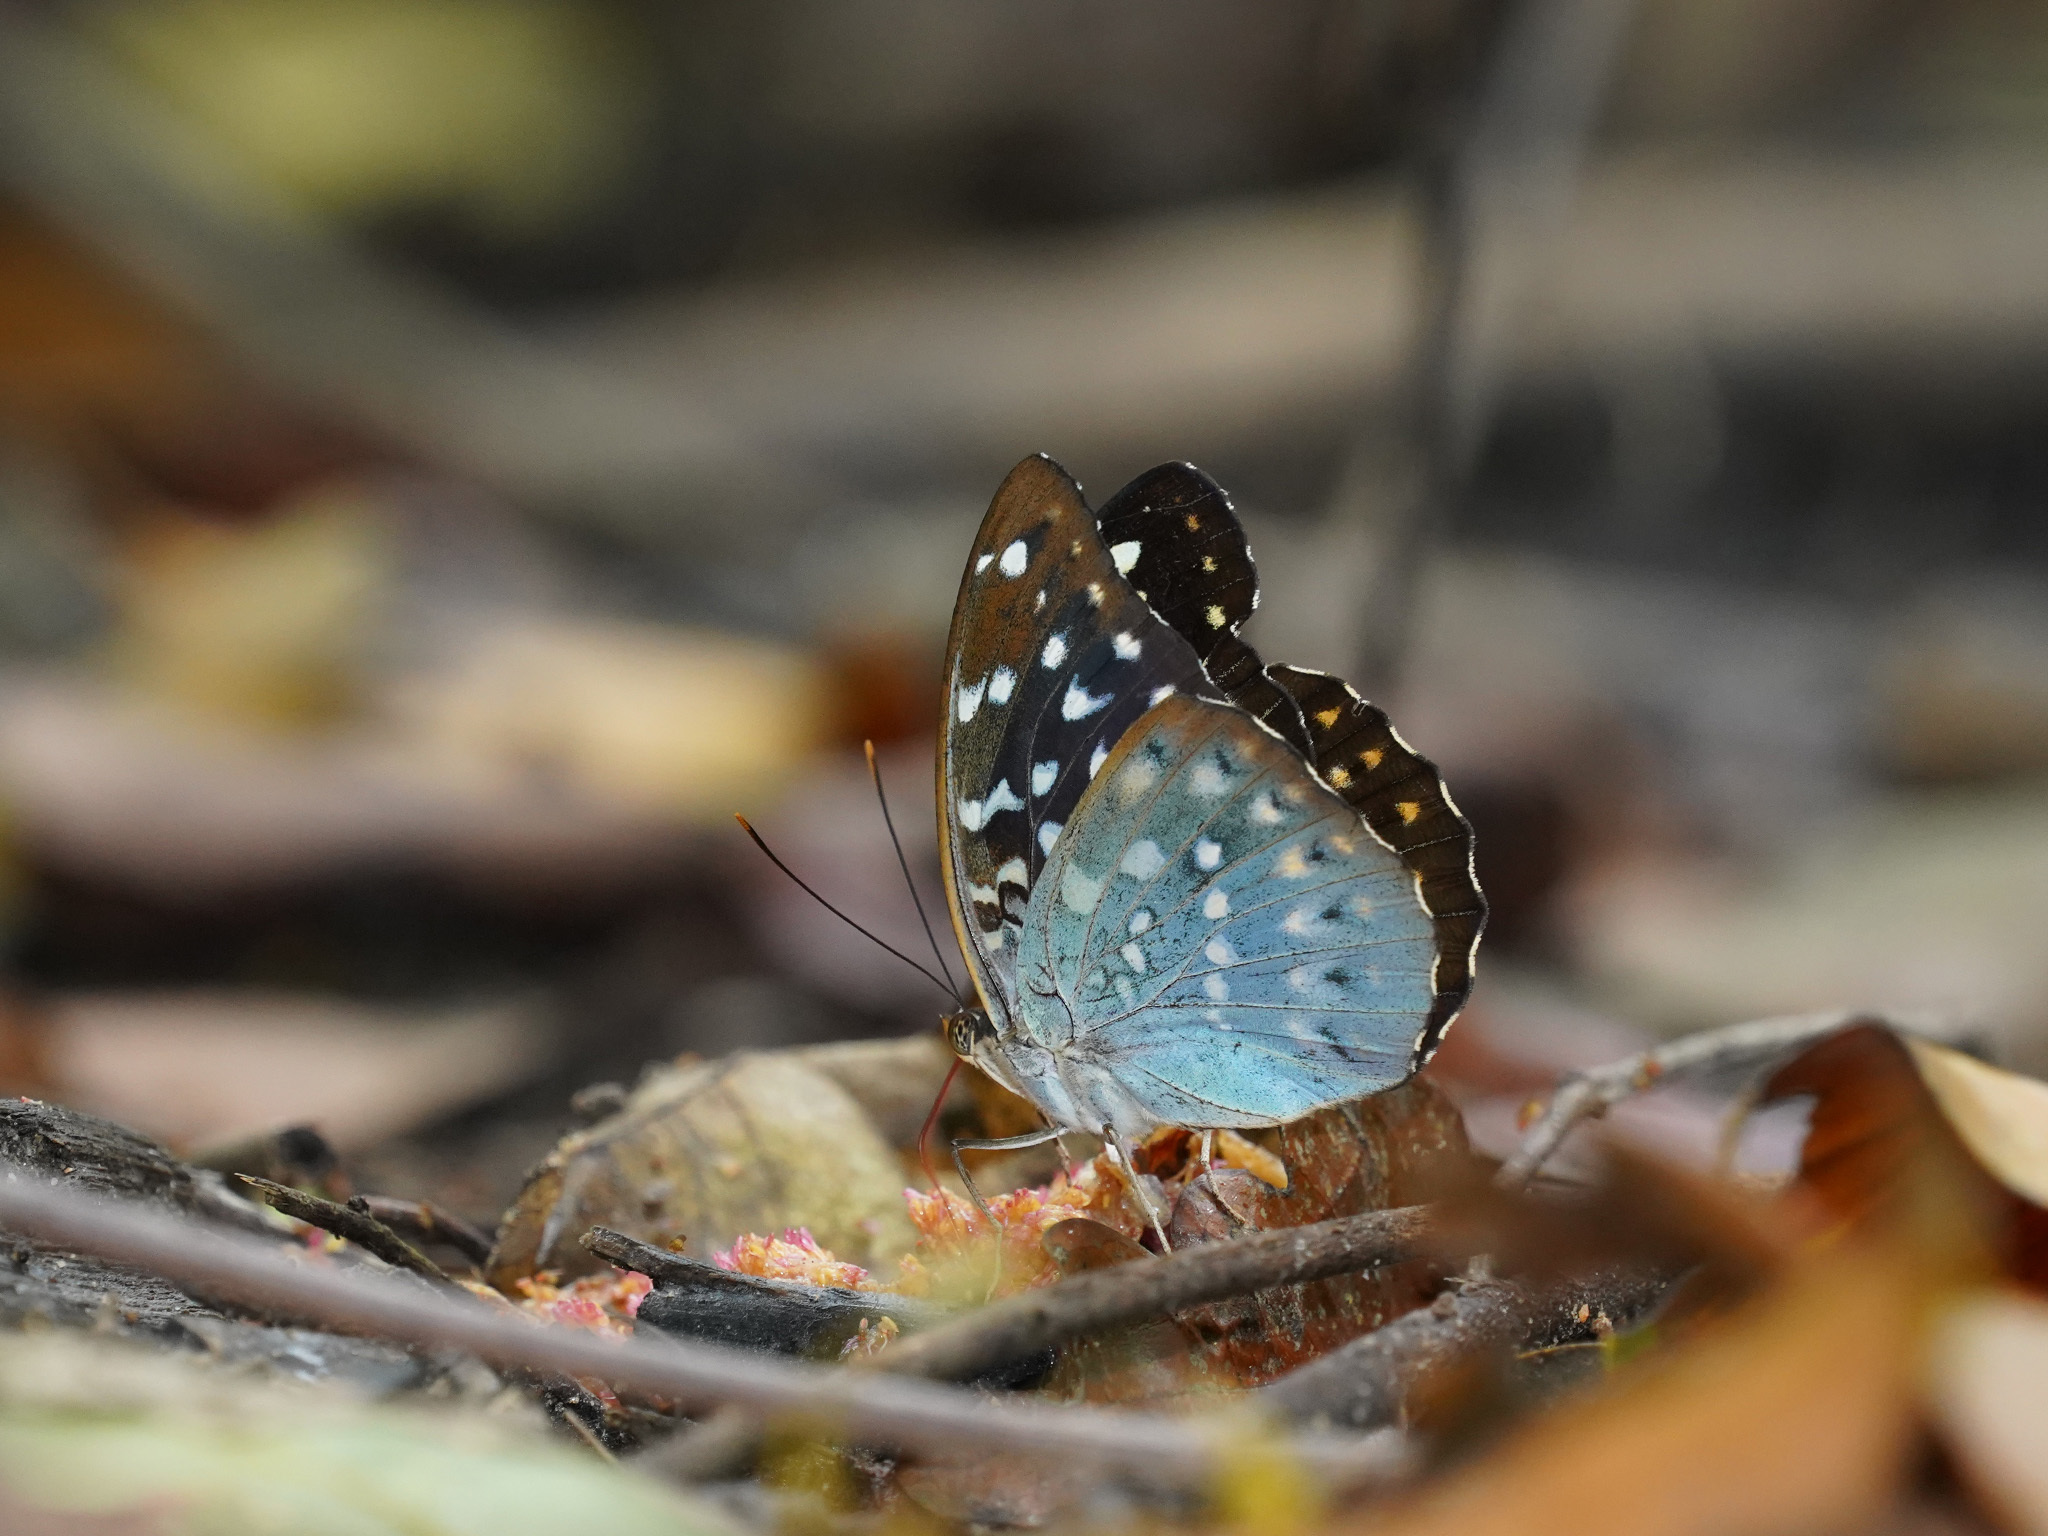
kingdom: Animalia
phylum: Arthropoda
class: Insecta
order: Lepidoptera
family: Nymphalidae
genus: Lexias
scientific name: Lexias pardalis
